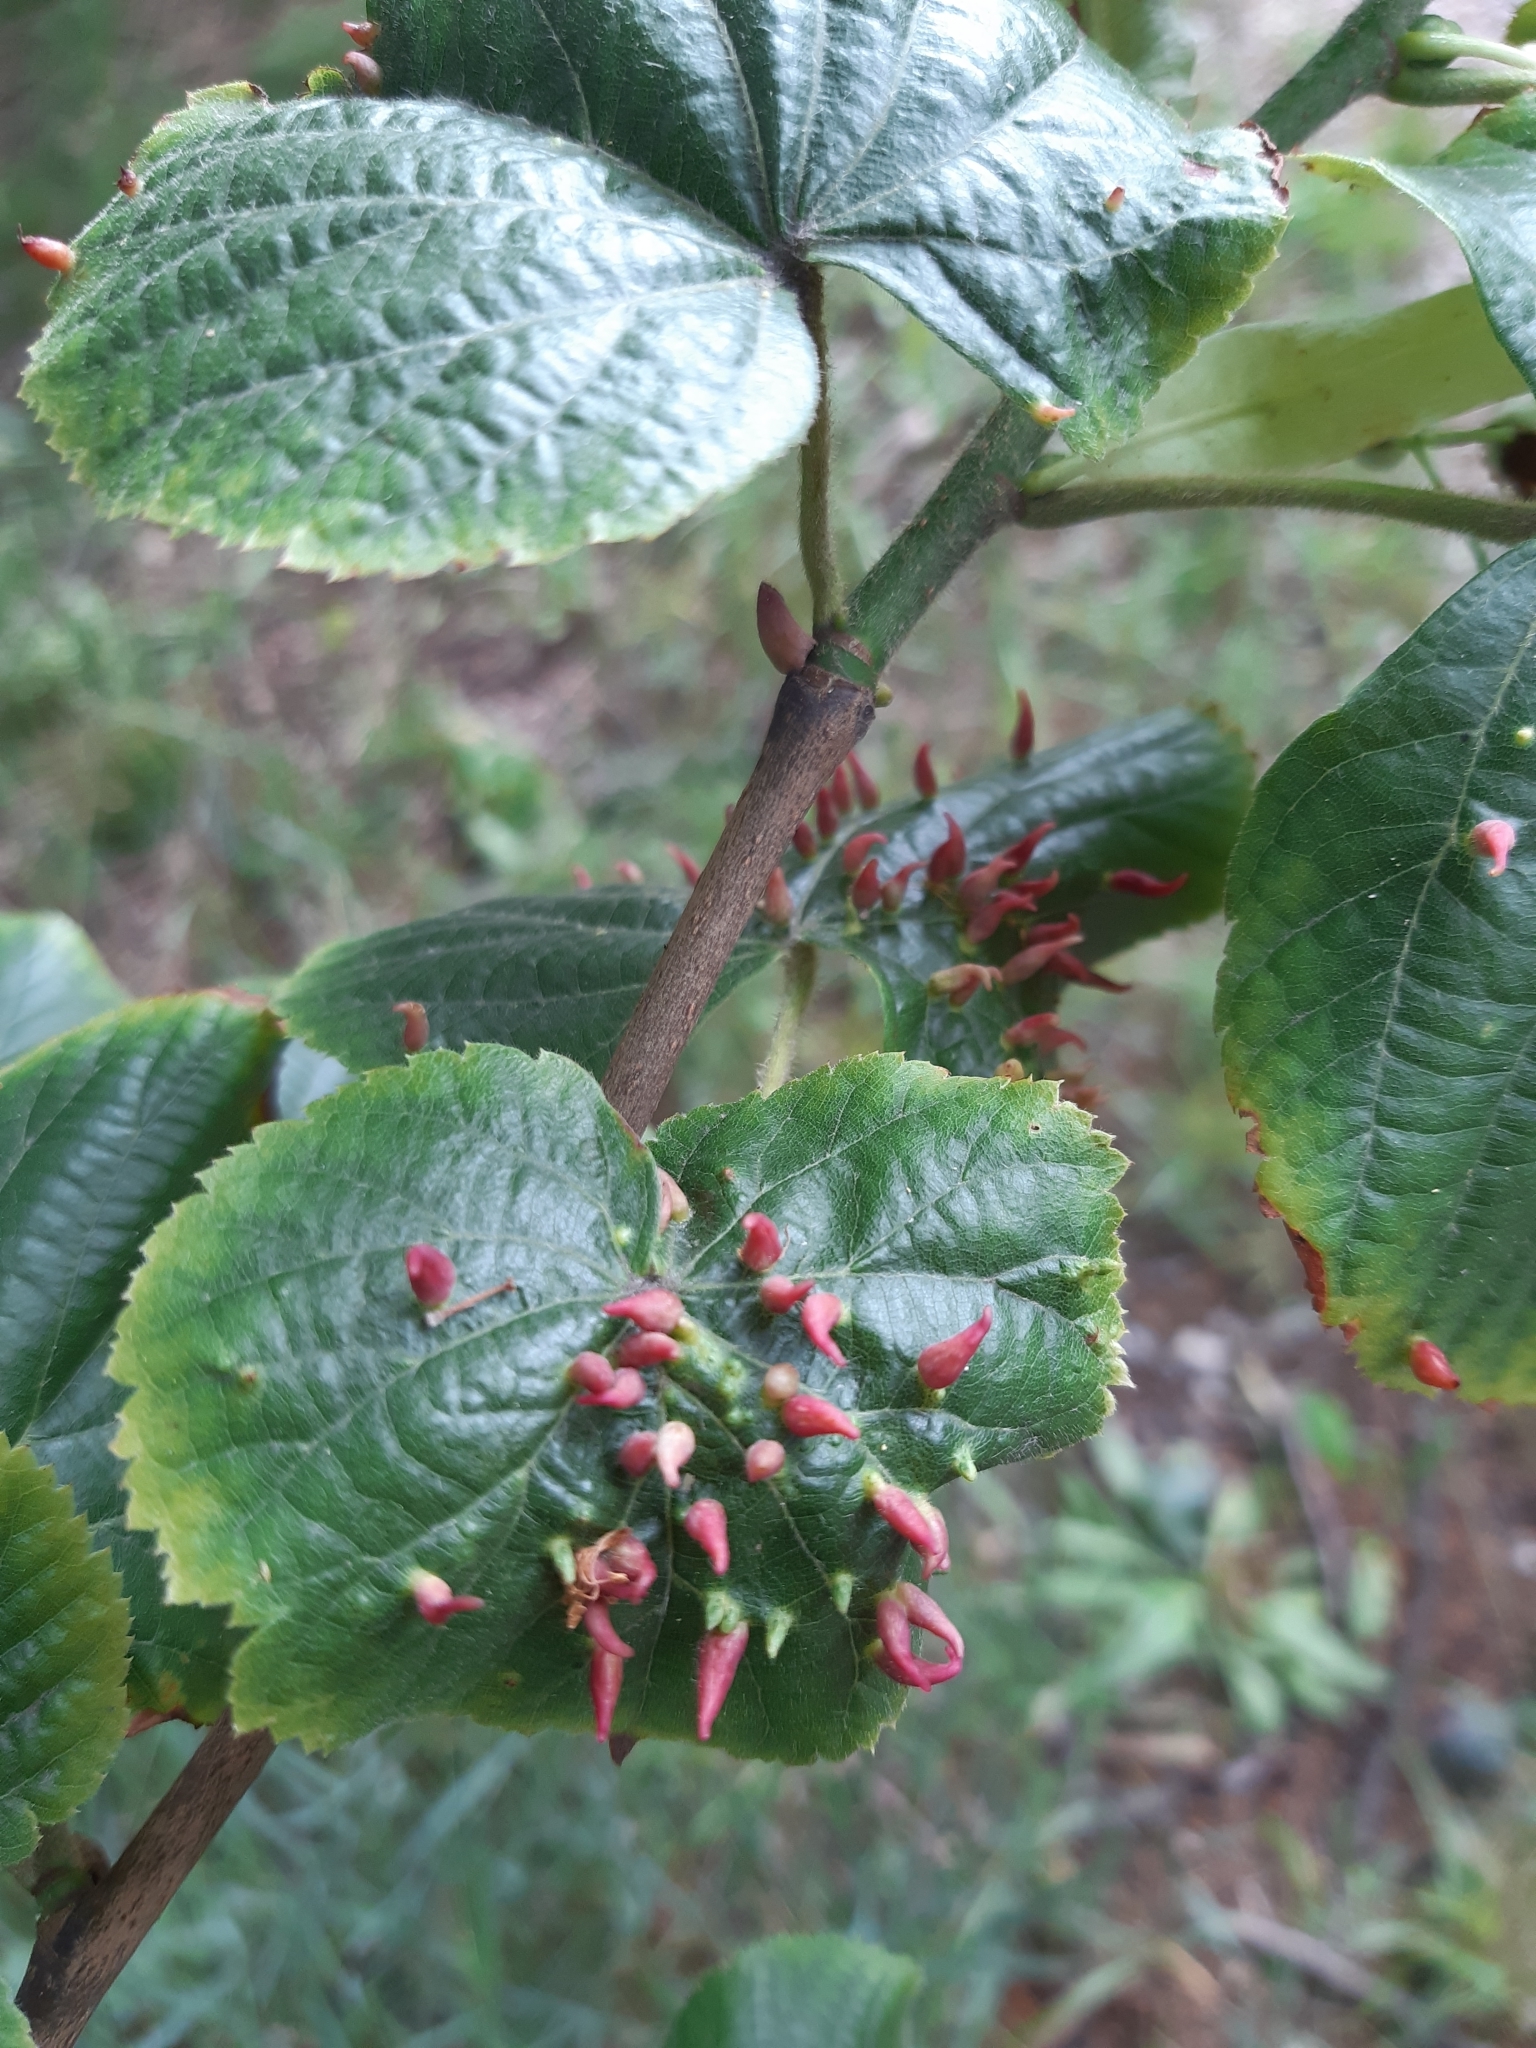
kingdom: Animalia
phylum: Arthropoda
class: Arachnida
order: Trombidiformes
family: Eriophyidae
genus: Eriophyes
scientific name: Eriophyes tiliae
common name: Red nail gall mite
